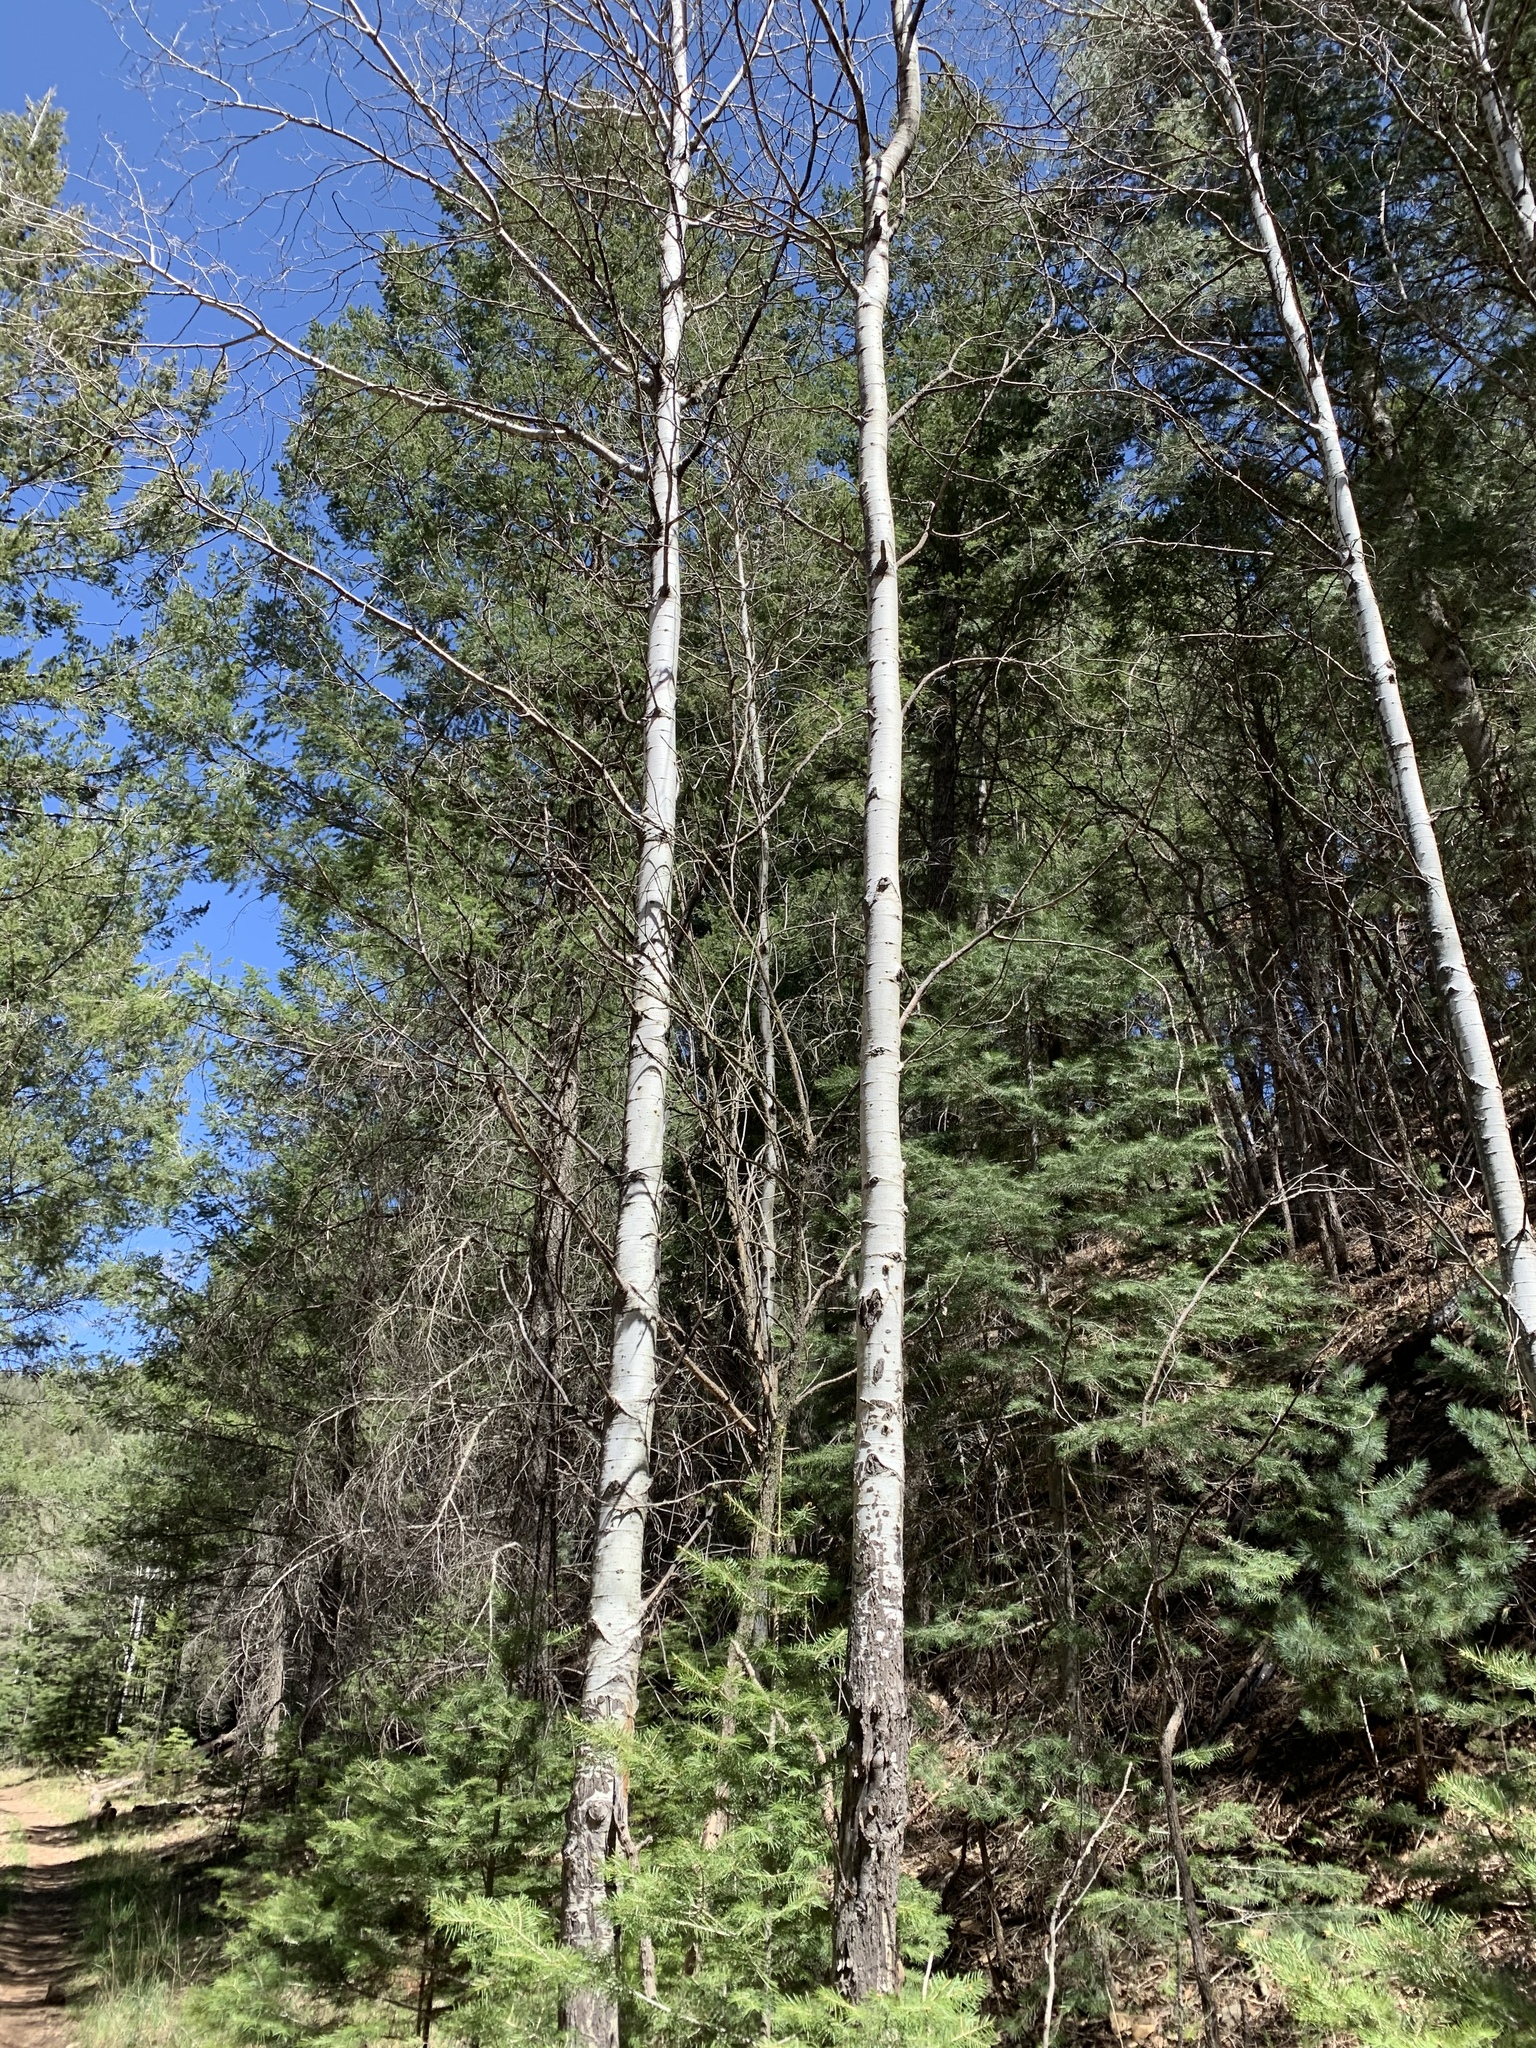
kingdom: Plantae
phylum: Tracheophyta
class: Magnoliopsida
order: Malpighiales
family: Salicaceae
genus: Populus
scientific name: Populus tremuloides
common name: Quaking aspen
